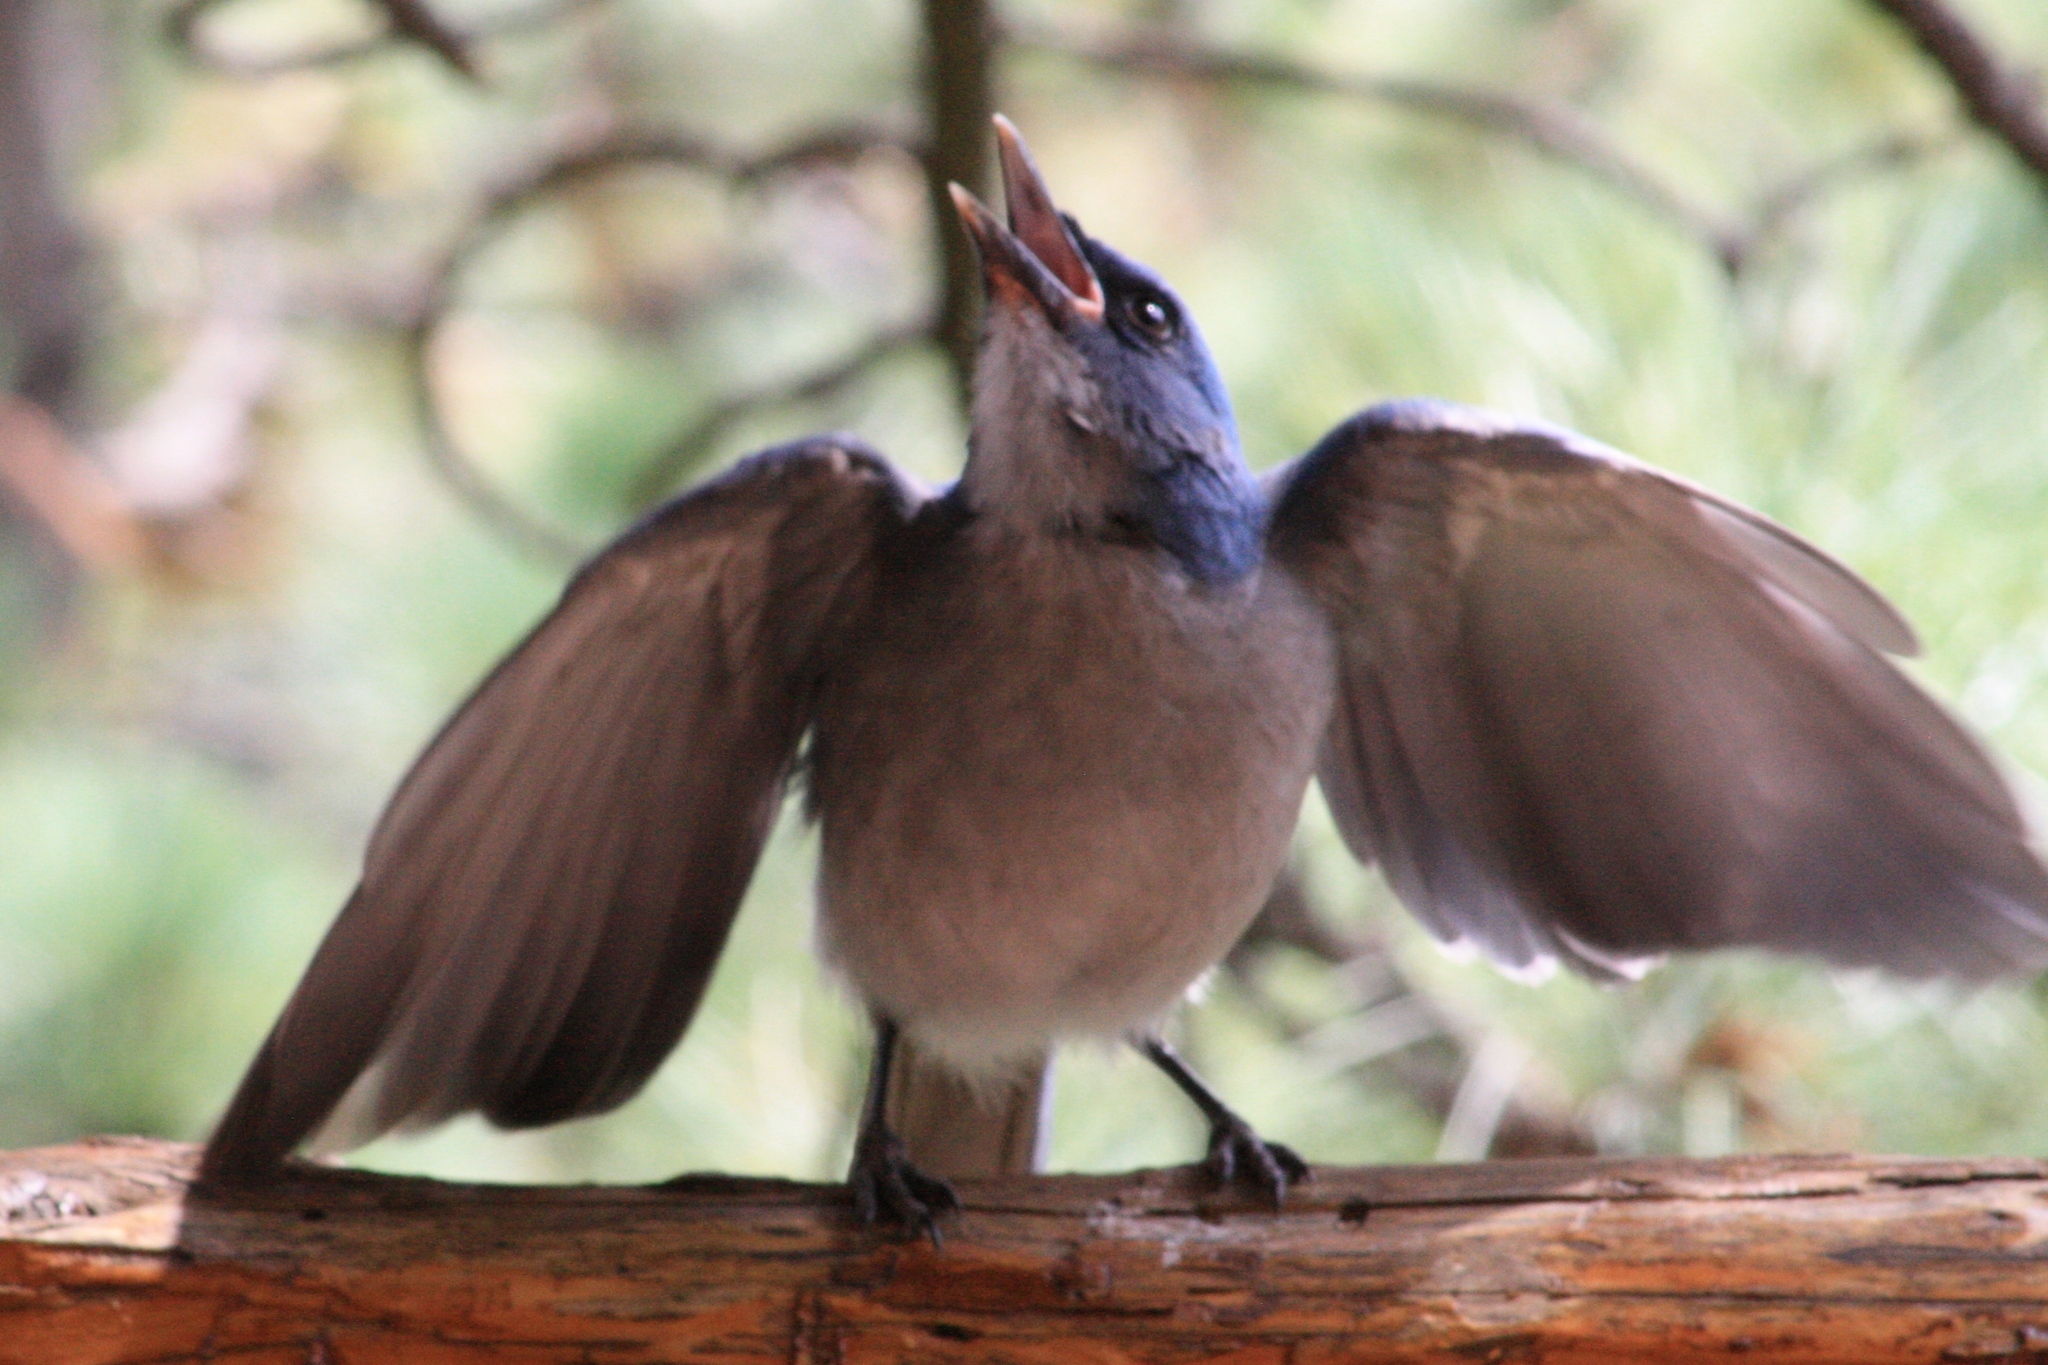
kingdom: Animalia
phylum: Chordata
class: Aves
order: Passeriformes
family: Corvidae
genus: Aphelocoma
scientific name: Aphelocoma wollweberi
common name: Mexican jay
